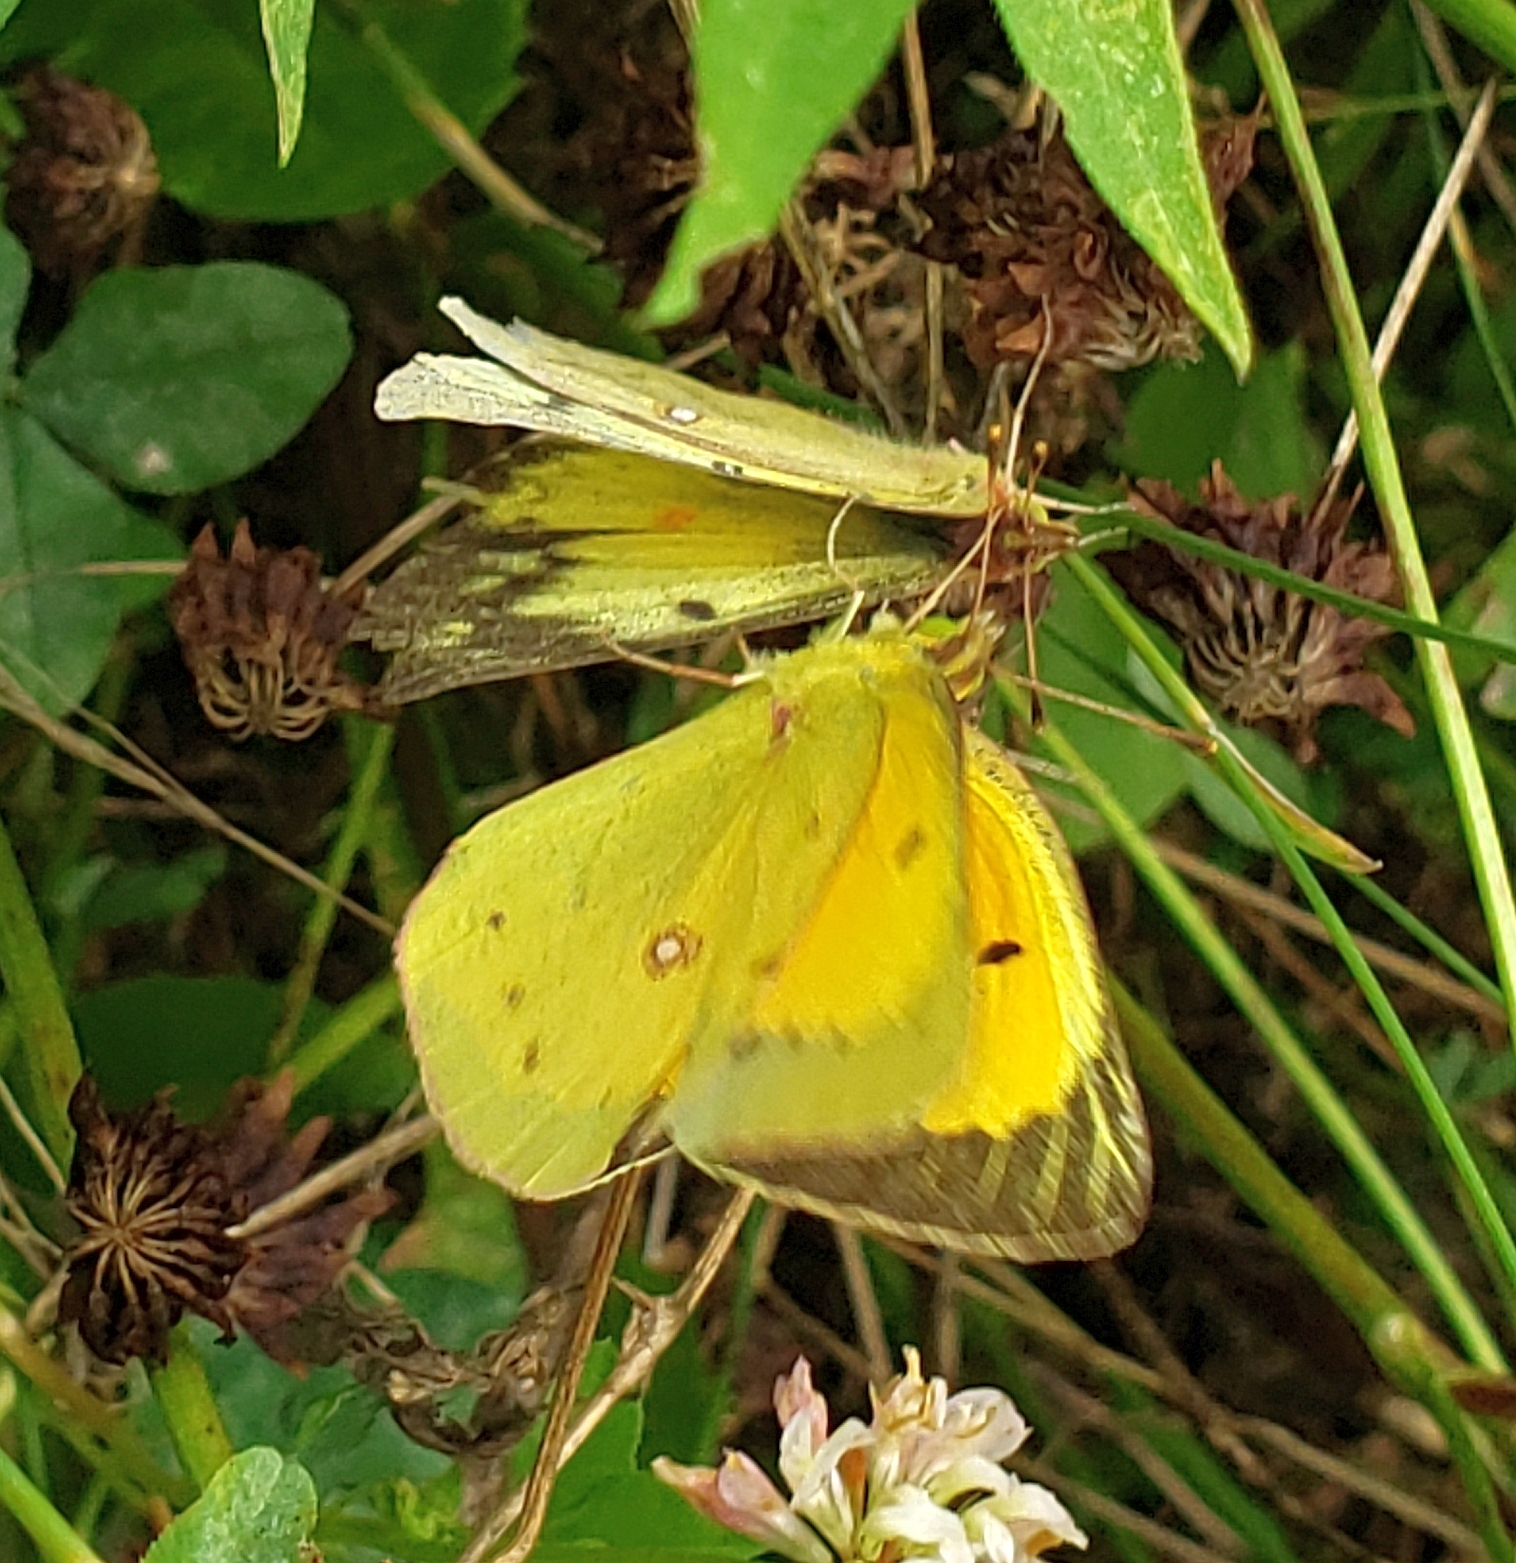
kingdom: Animalia
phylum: Arthropoda
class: Insecta
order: Lepidoptera
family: Pieridae
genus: Colias
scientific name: Colias eurytheme
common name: Alfalfa butterfly
